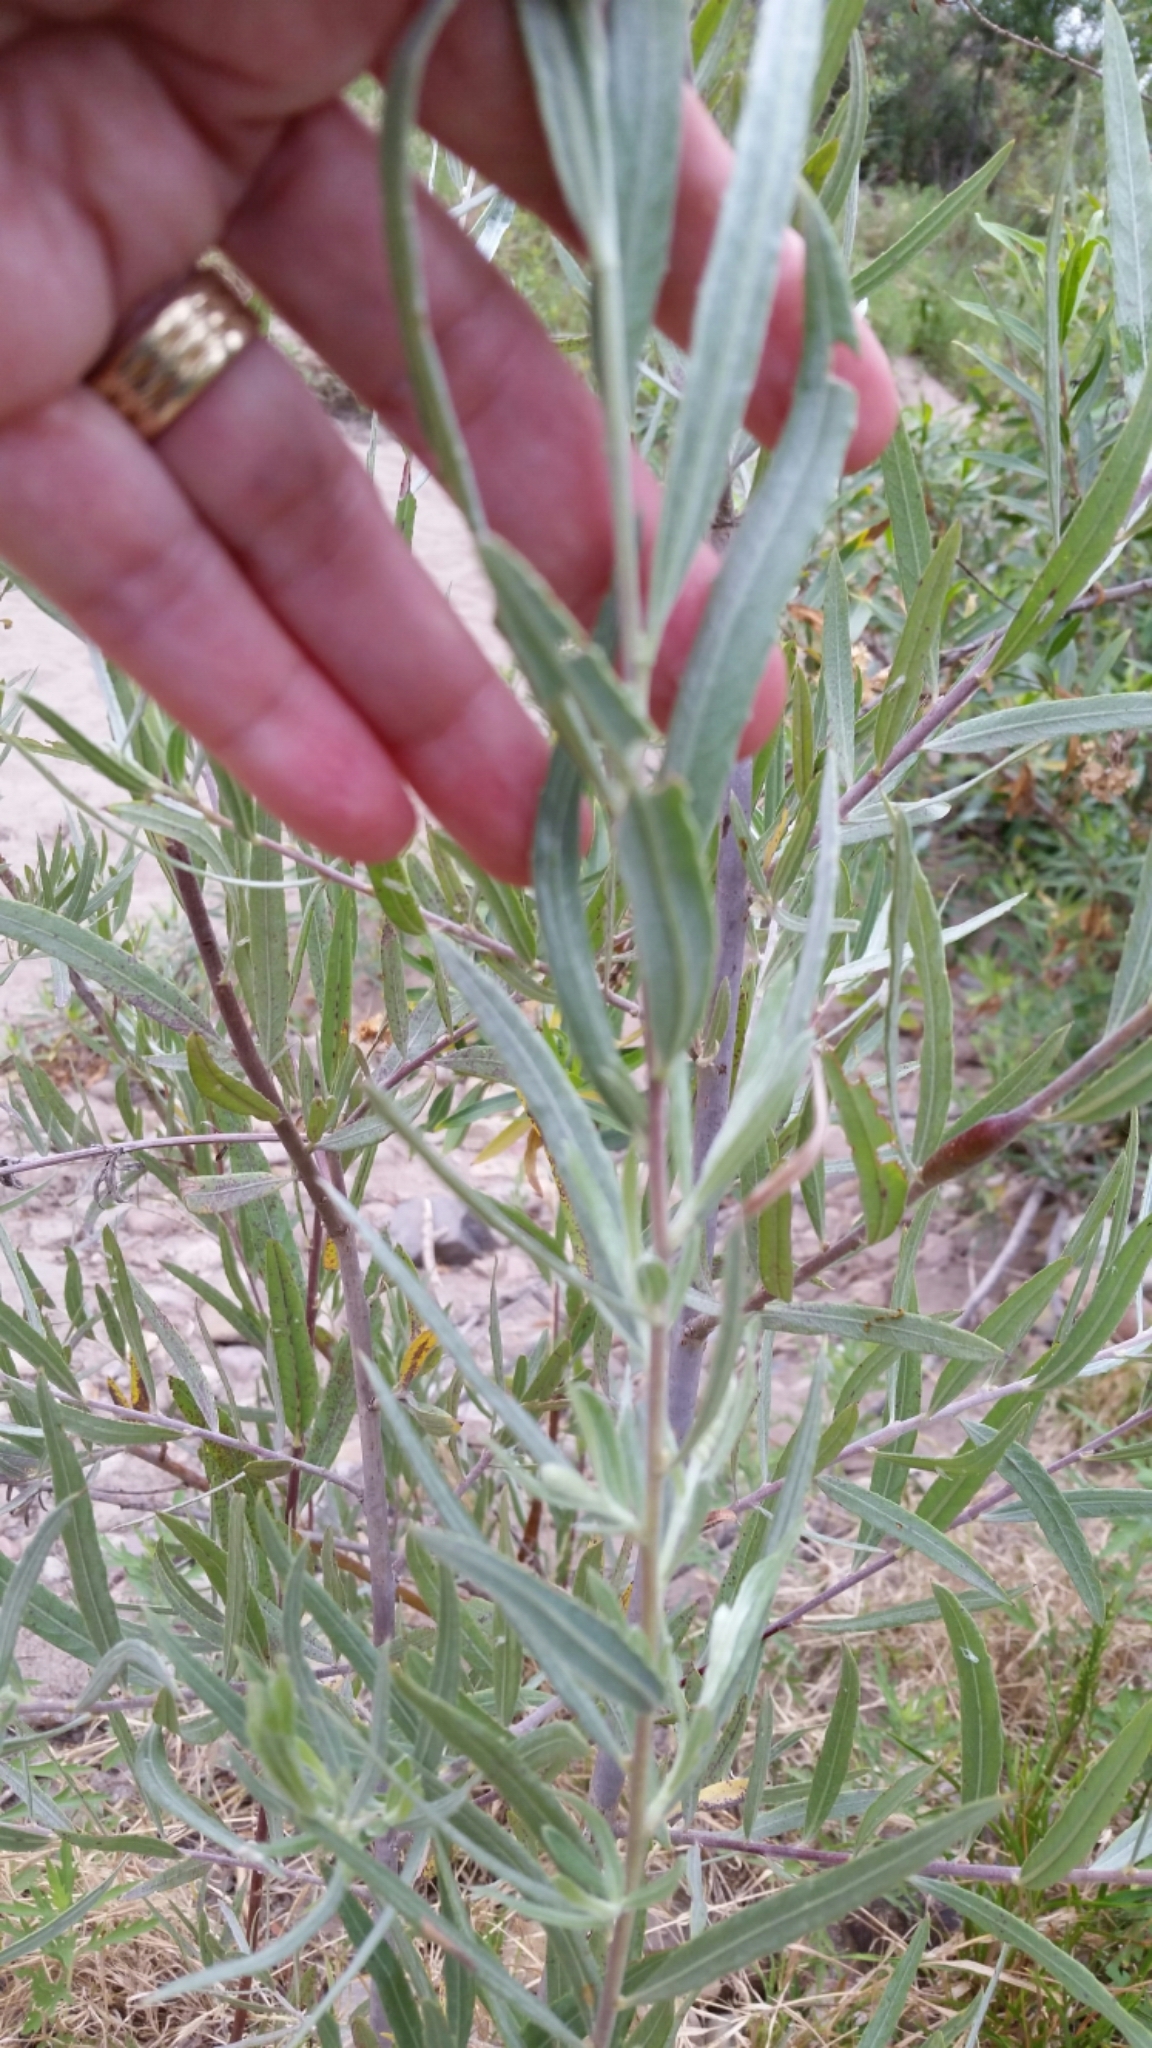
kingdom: Plantae
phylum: Tracheophyta
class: Magnoliopsida
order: Malpighiales
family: Salicaceae
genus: Salix
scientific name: Salix exigua
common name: Coyote willow
